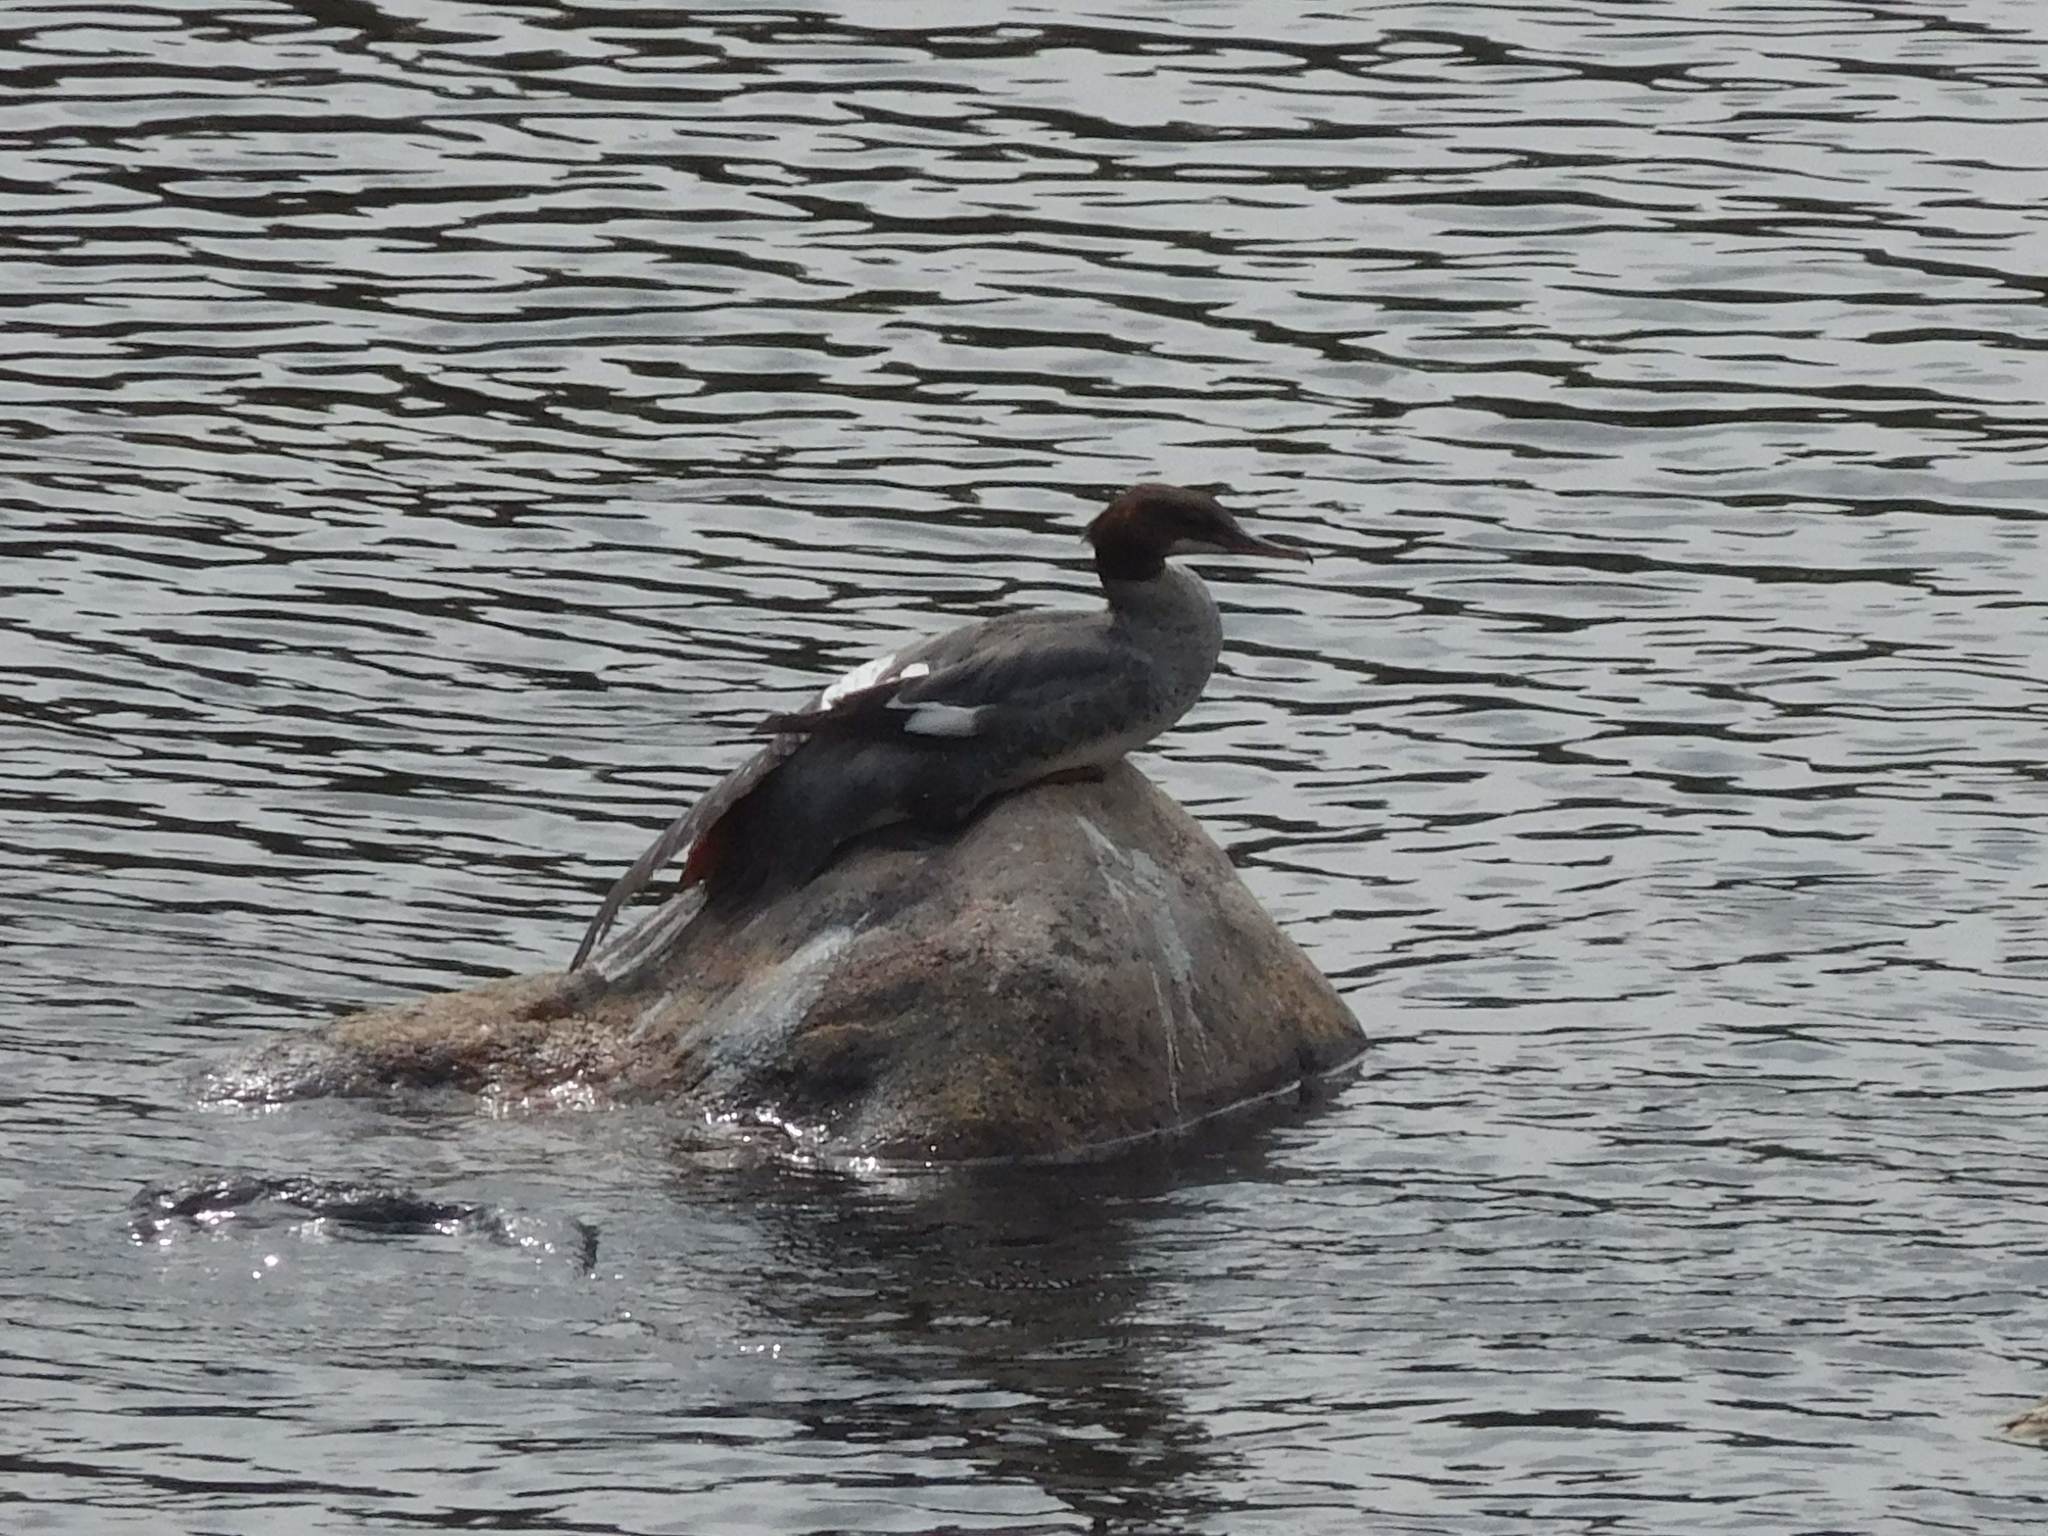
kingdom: Animalia
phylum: Chordata
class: Aves
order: Anseriformes
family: Anatidae
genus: Mergus
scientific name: Mergus merganser
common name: Common merganser
